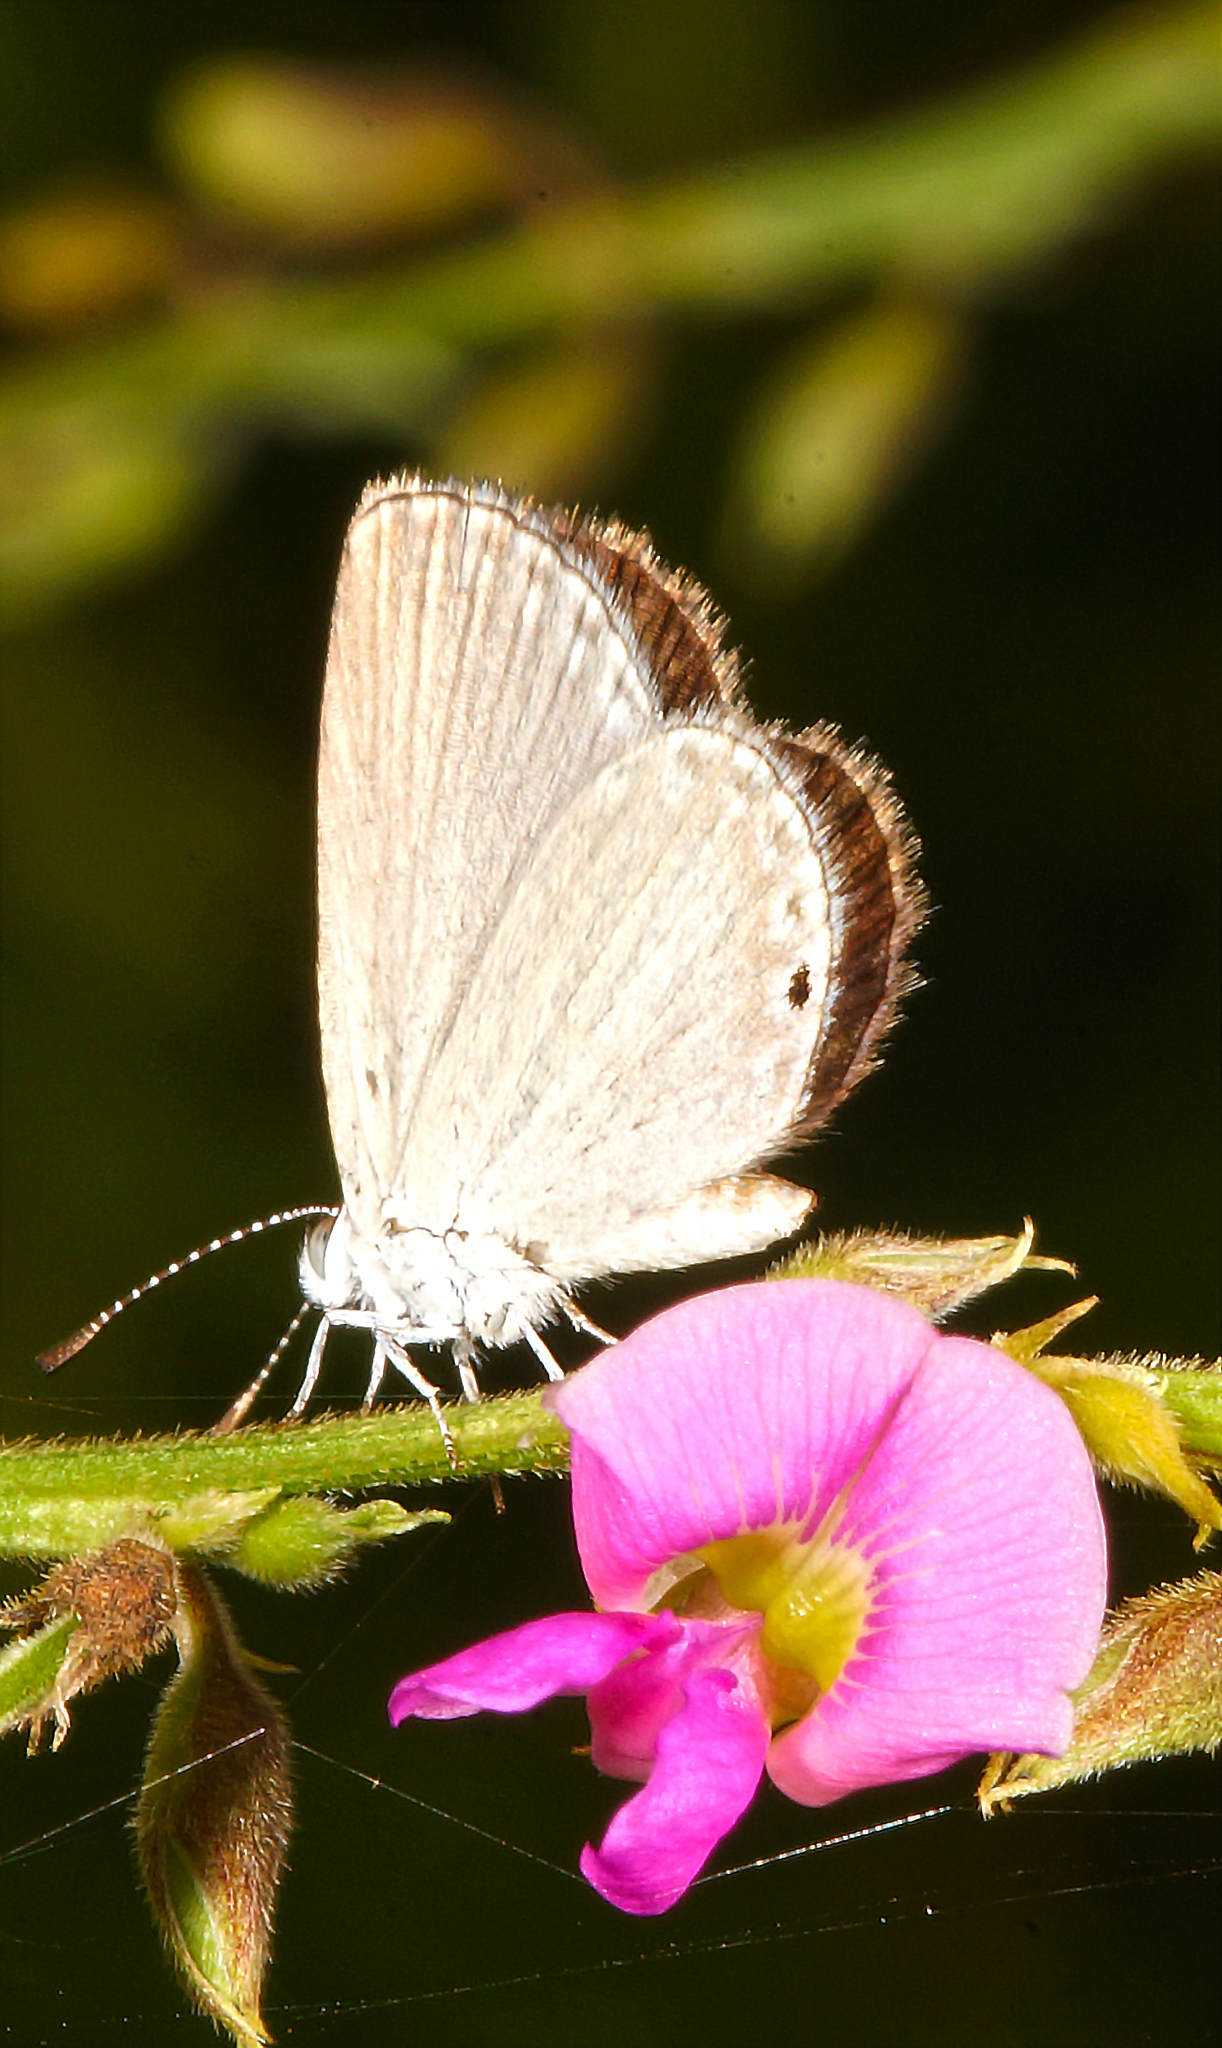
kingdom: Animalia
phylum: Arthropoda
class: Insecta
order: Lepidoptera
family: Lycaenidae
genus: Cupido
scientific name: Cupido nisa
